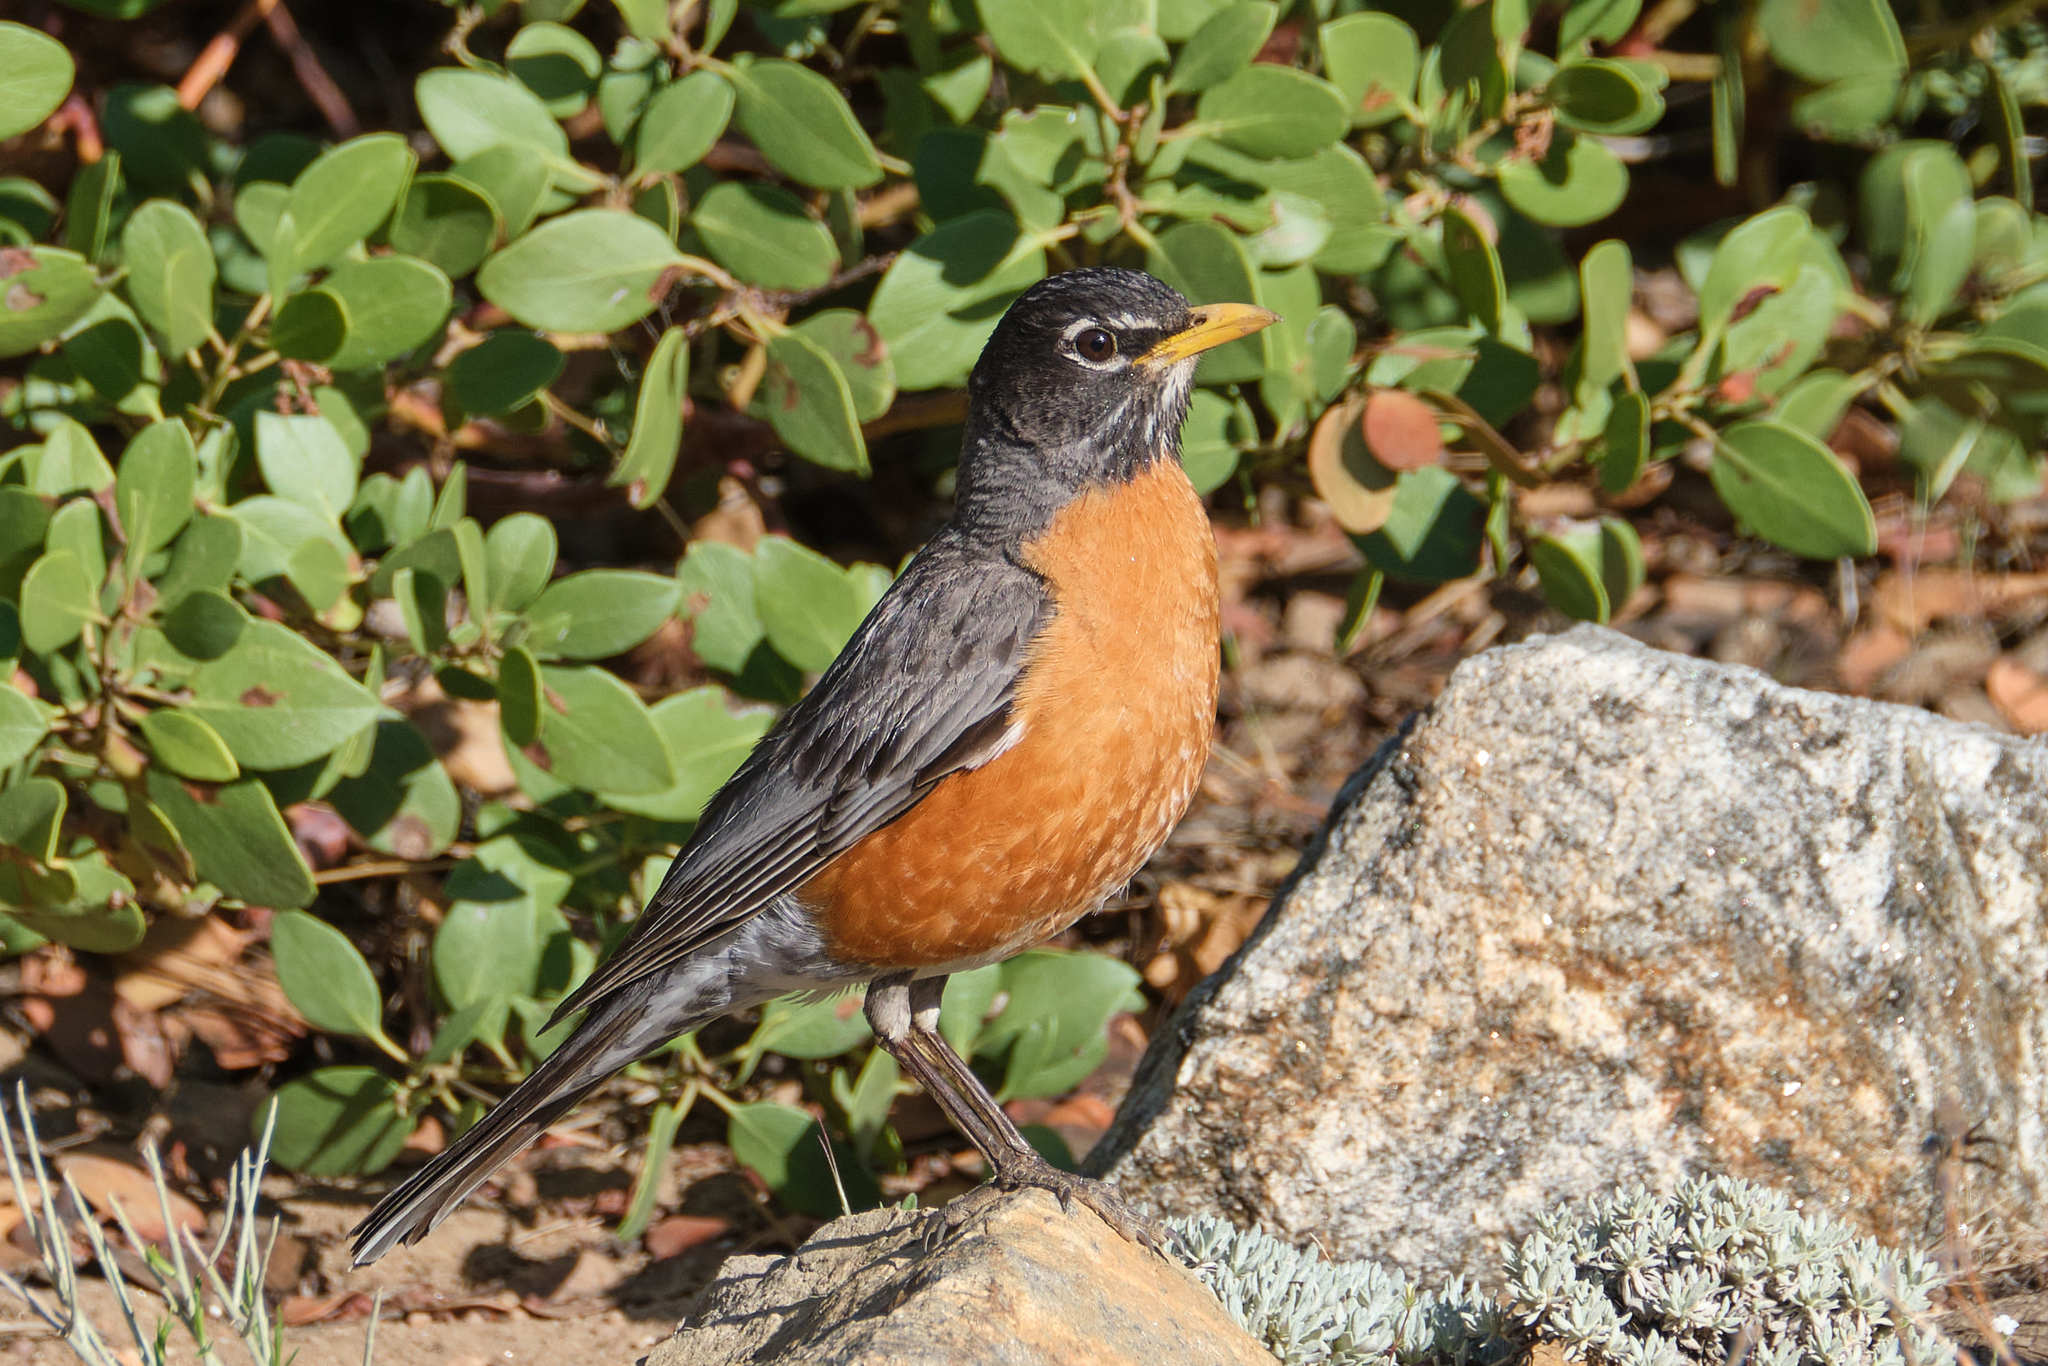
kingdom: Animalia
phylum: Chordata
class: Aves
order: Passeriformes
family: Turdidae
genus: Turdus
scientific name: Turdus migratorius
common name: American robin
